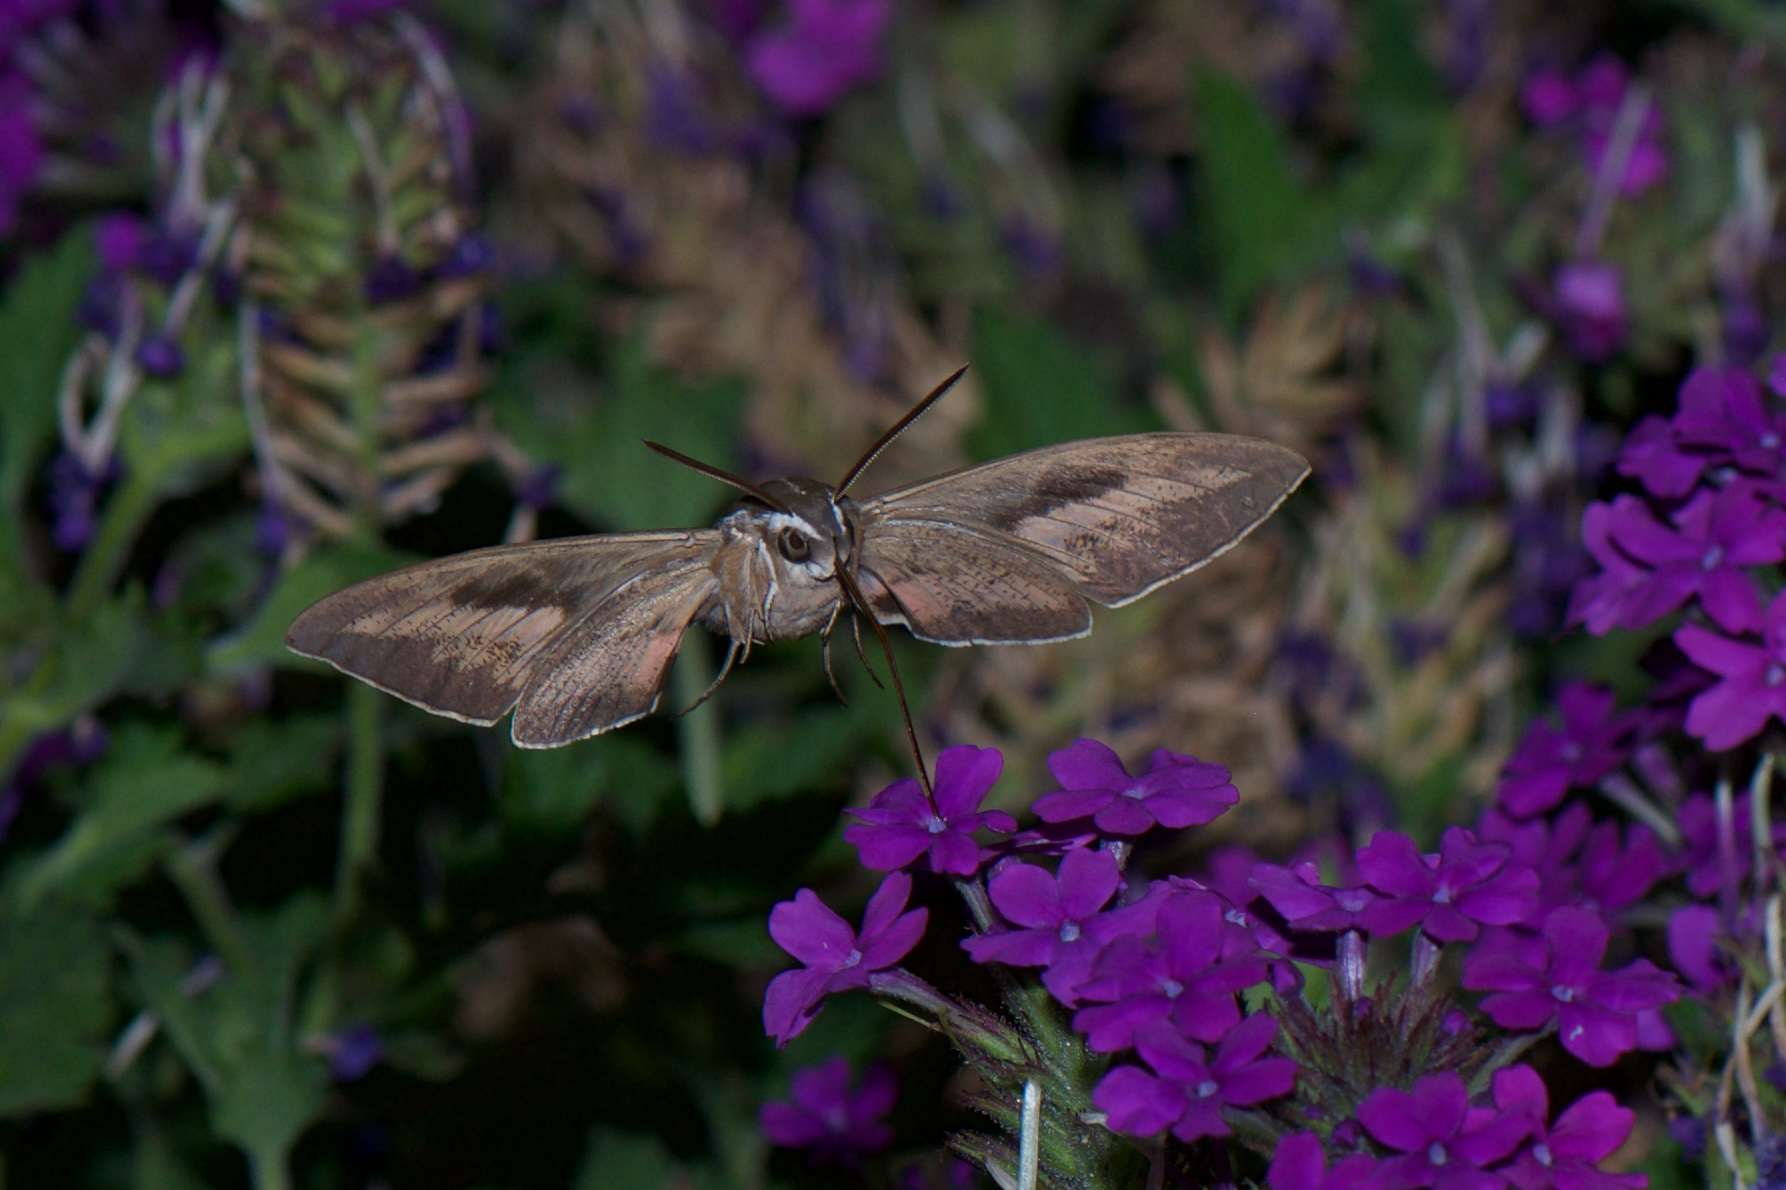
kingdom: Animalia
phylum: Arthropoda
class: Insecta
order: Lepidoptera
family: Sphingidae
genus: Hyles
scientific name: Hyles lineata
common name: White-lined sphinx
